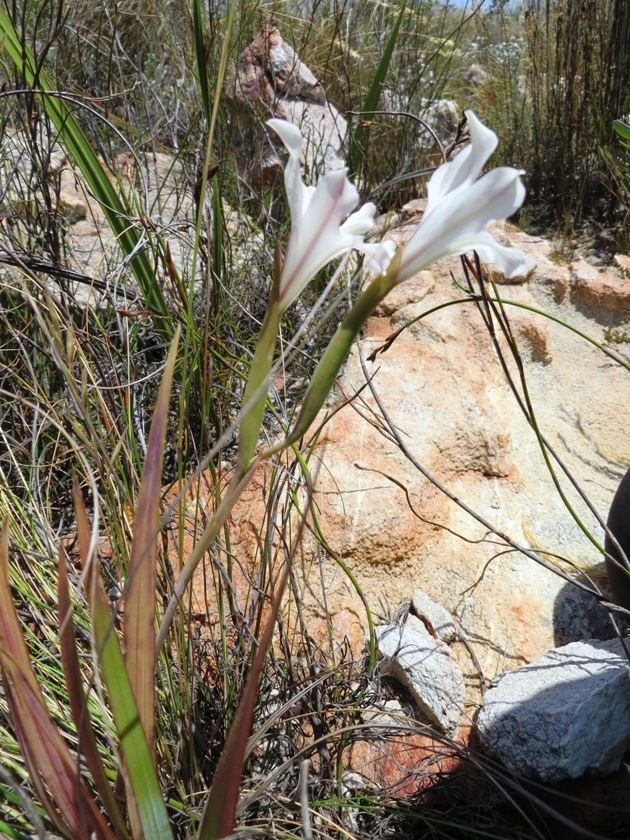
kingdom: Plantae
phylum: Tracheophyta
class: Liliopsida
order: Asparagales
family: Iridaceae
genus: Gladiolus
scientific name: Gladiolus floribundus
